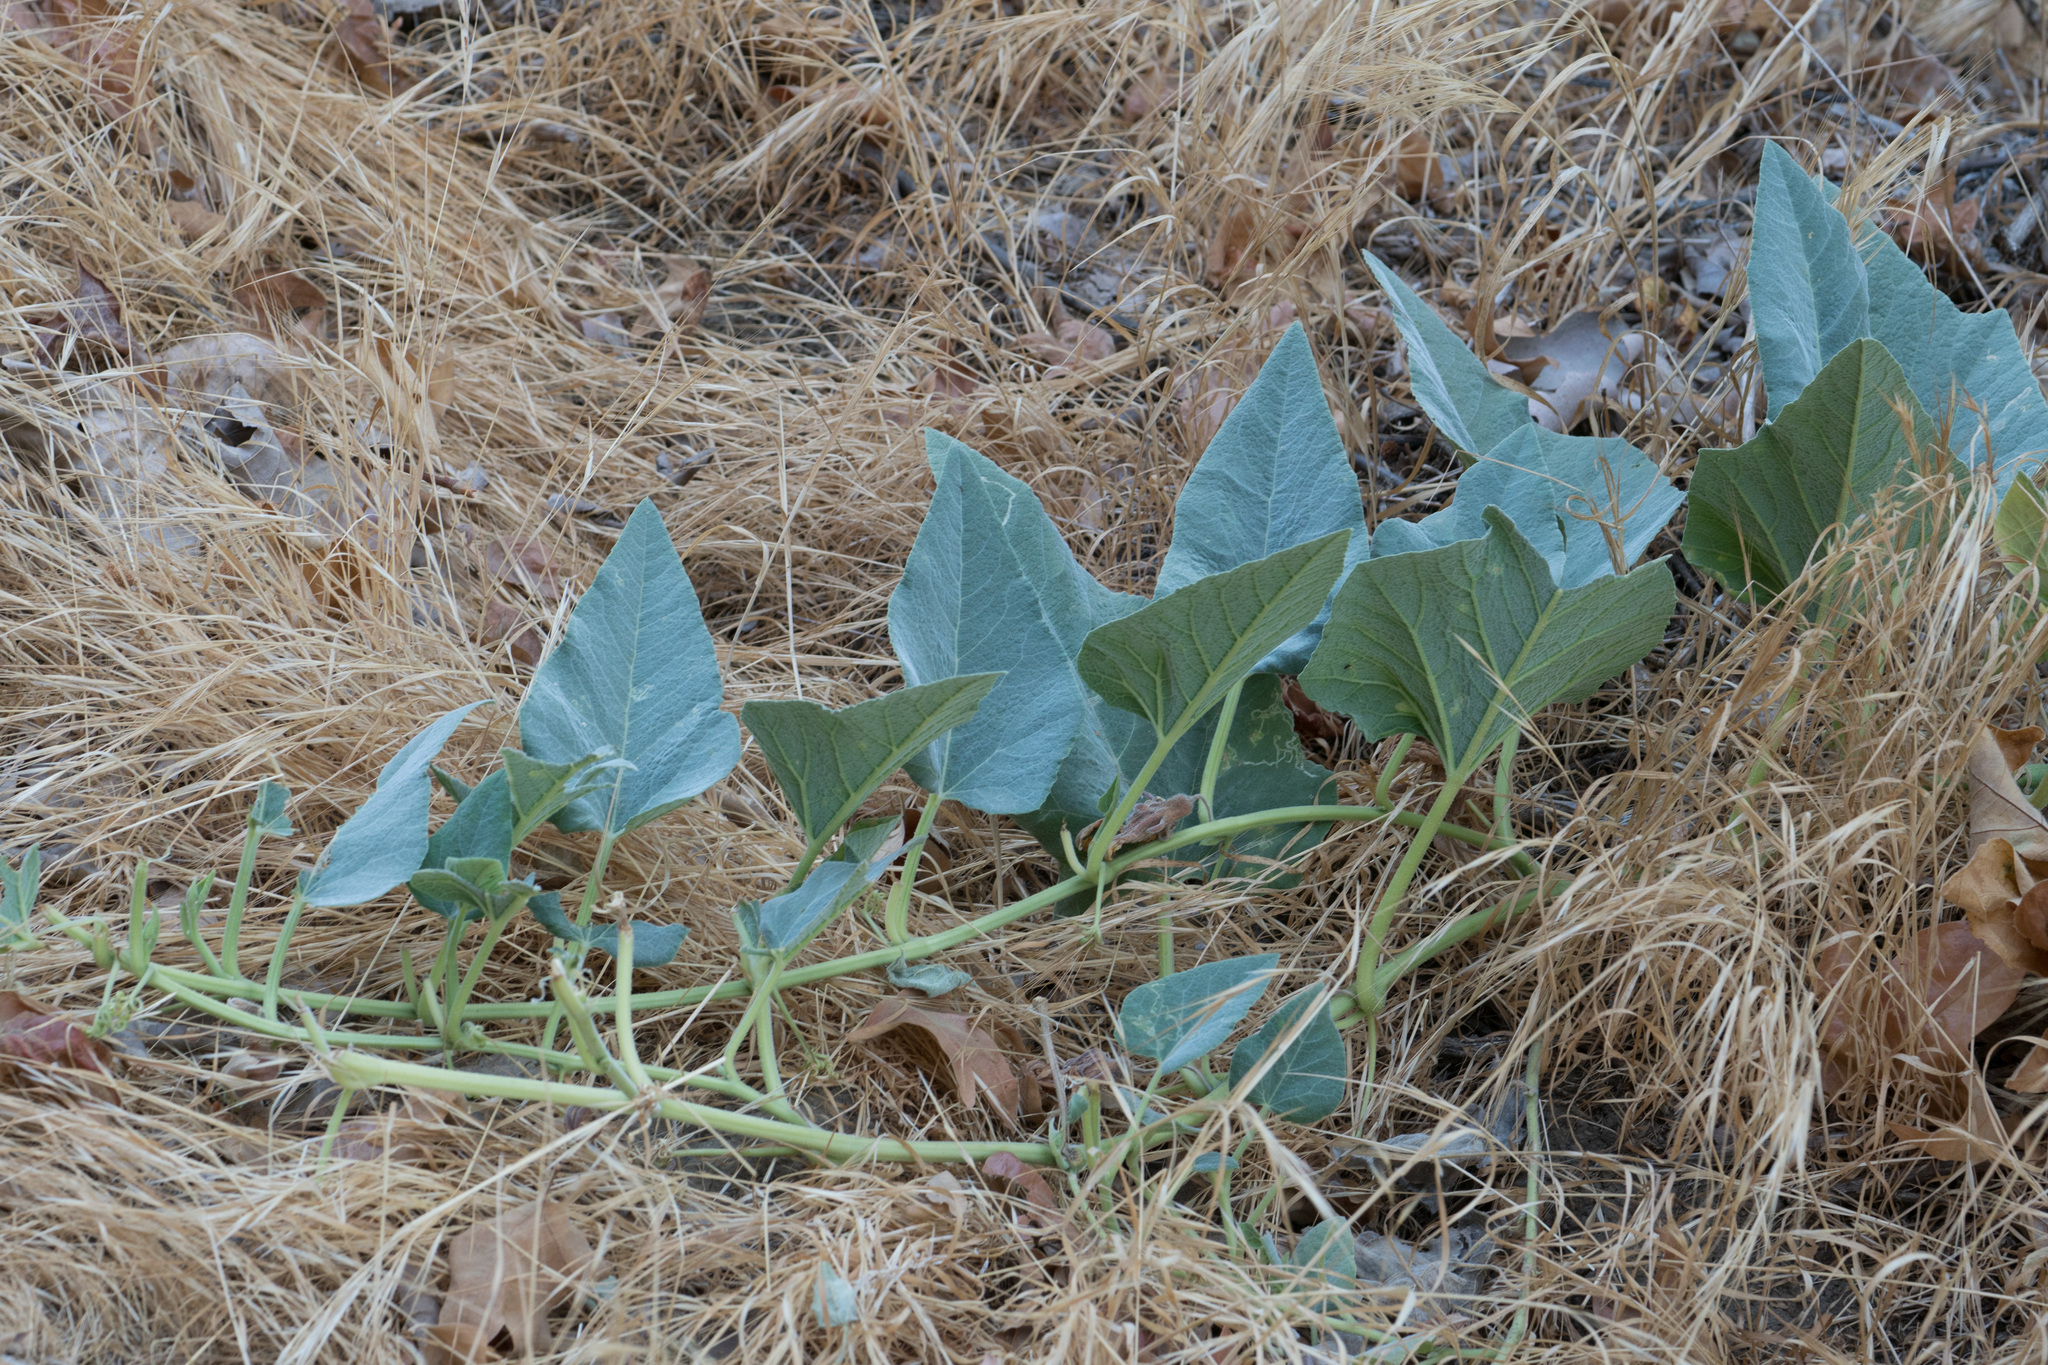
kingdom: Plantae
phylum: Tracheophyta
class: Magnoliopsida
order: Cucurbitales
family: Cucurbitaceae
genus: Cucurbita
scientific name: Cucurbita foetidissima
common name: Buffalo gourd
